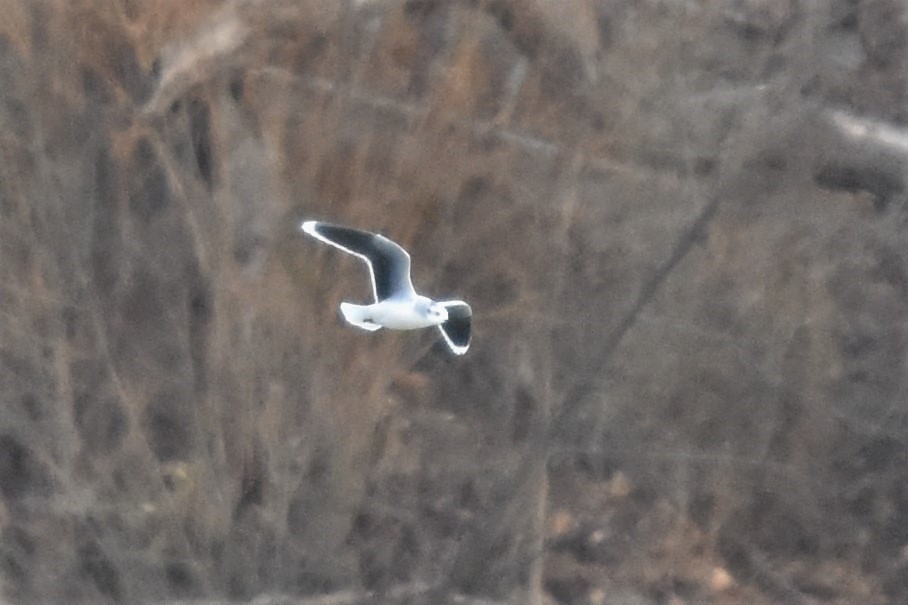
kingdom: Animalia
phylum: Chordata
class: Aves
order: Charadriiformes
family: Laridae
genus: Hydrocoloeus
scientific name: Hydrocoloeus minutus
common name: Little gull
